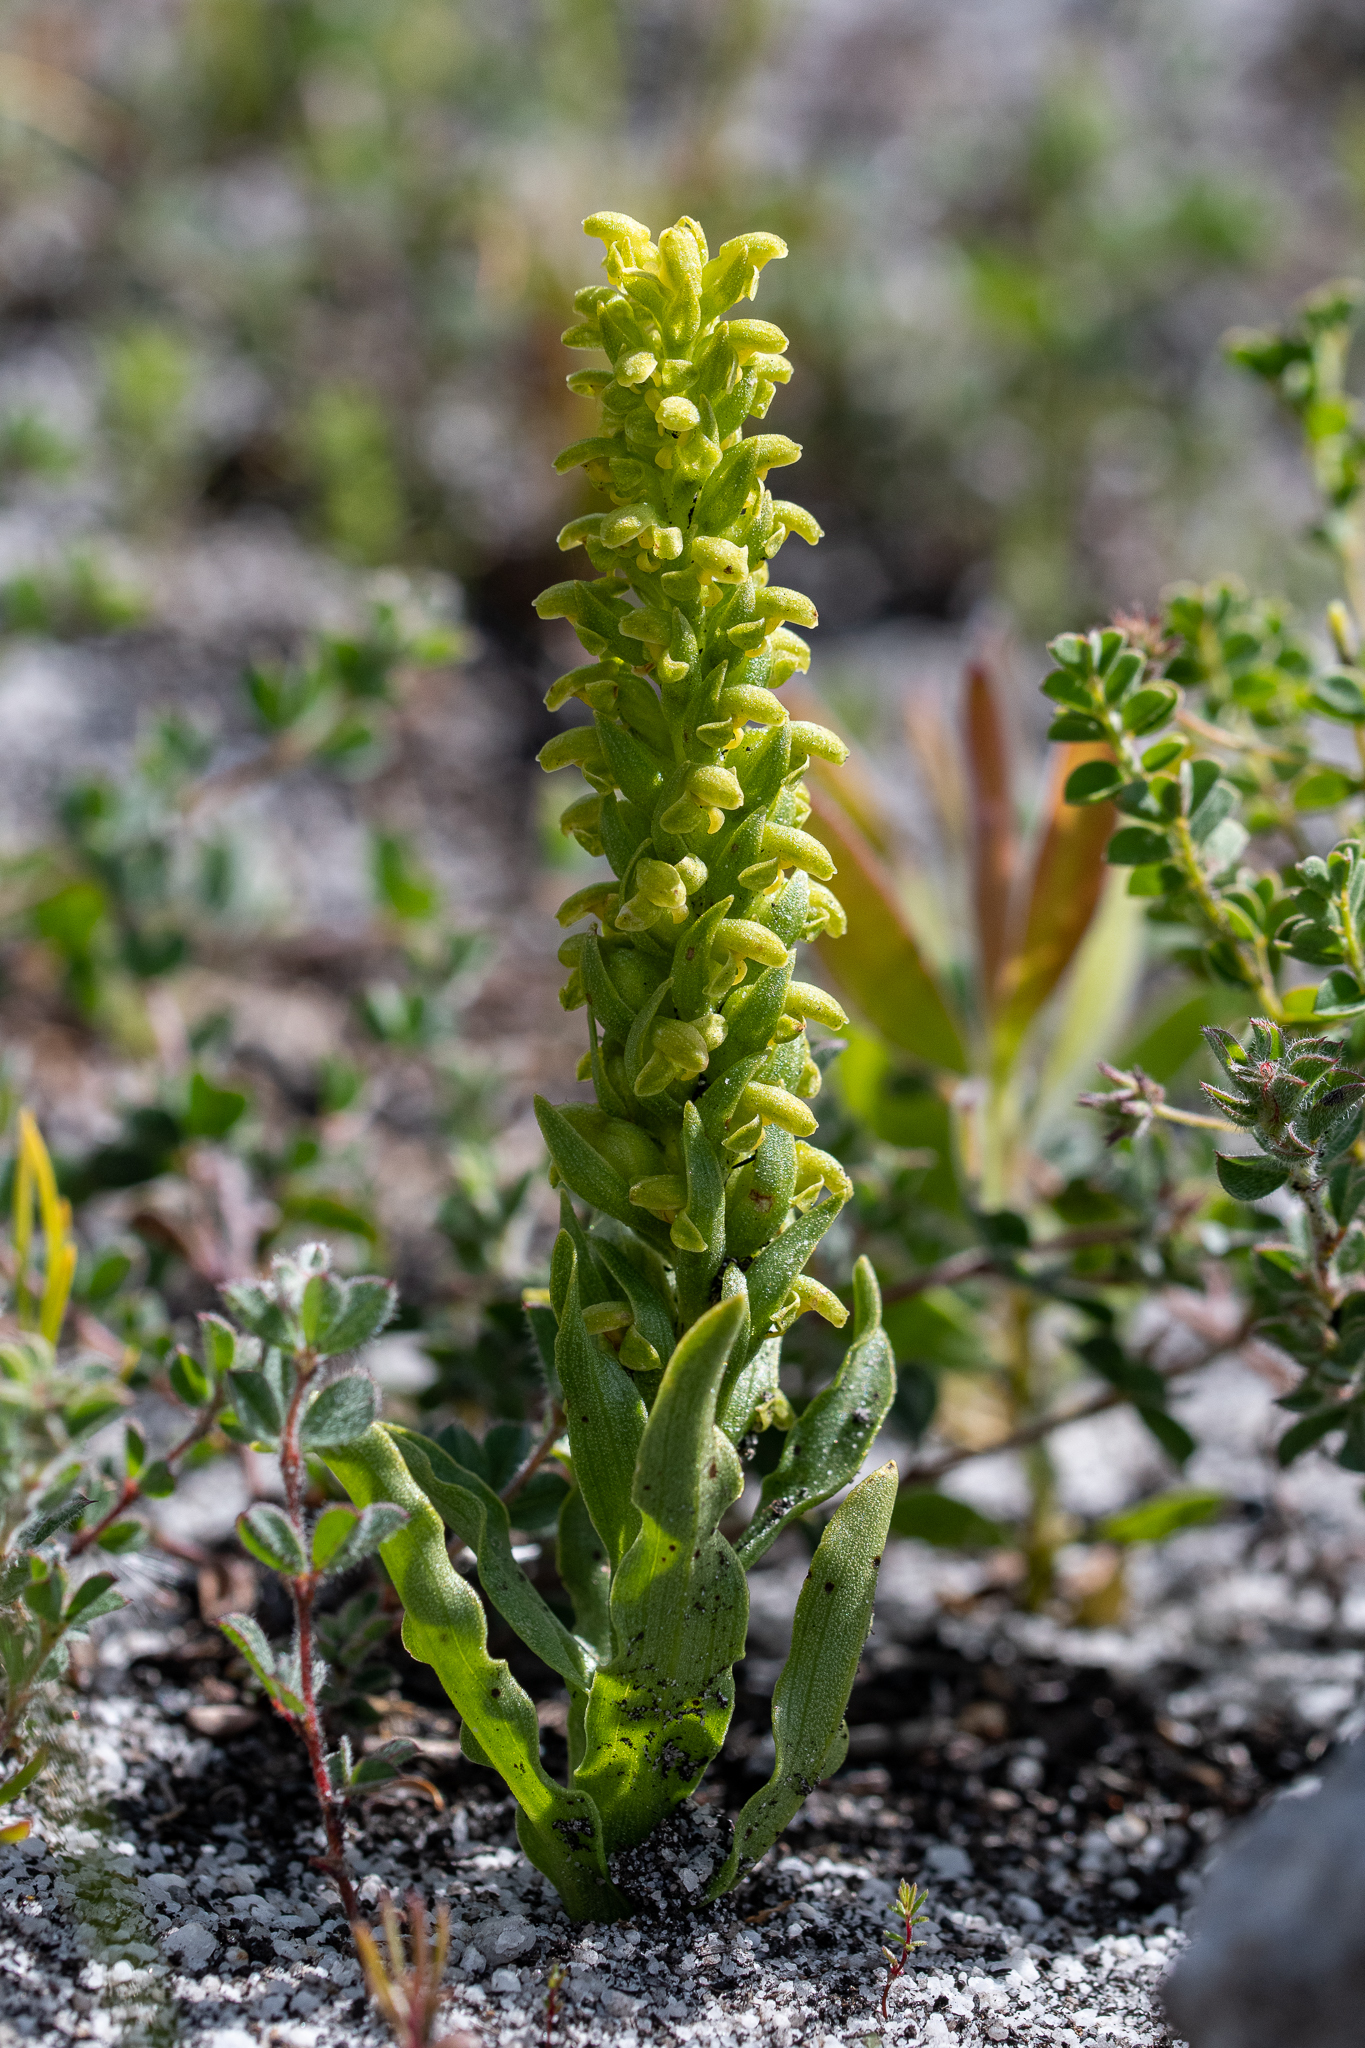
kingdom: Plantae
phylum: Tracheophyta
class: Liliopsida
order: Asparagales
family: Orchidaceae
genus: Disa
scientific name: Disa cylindrica
